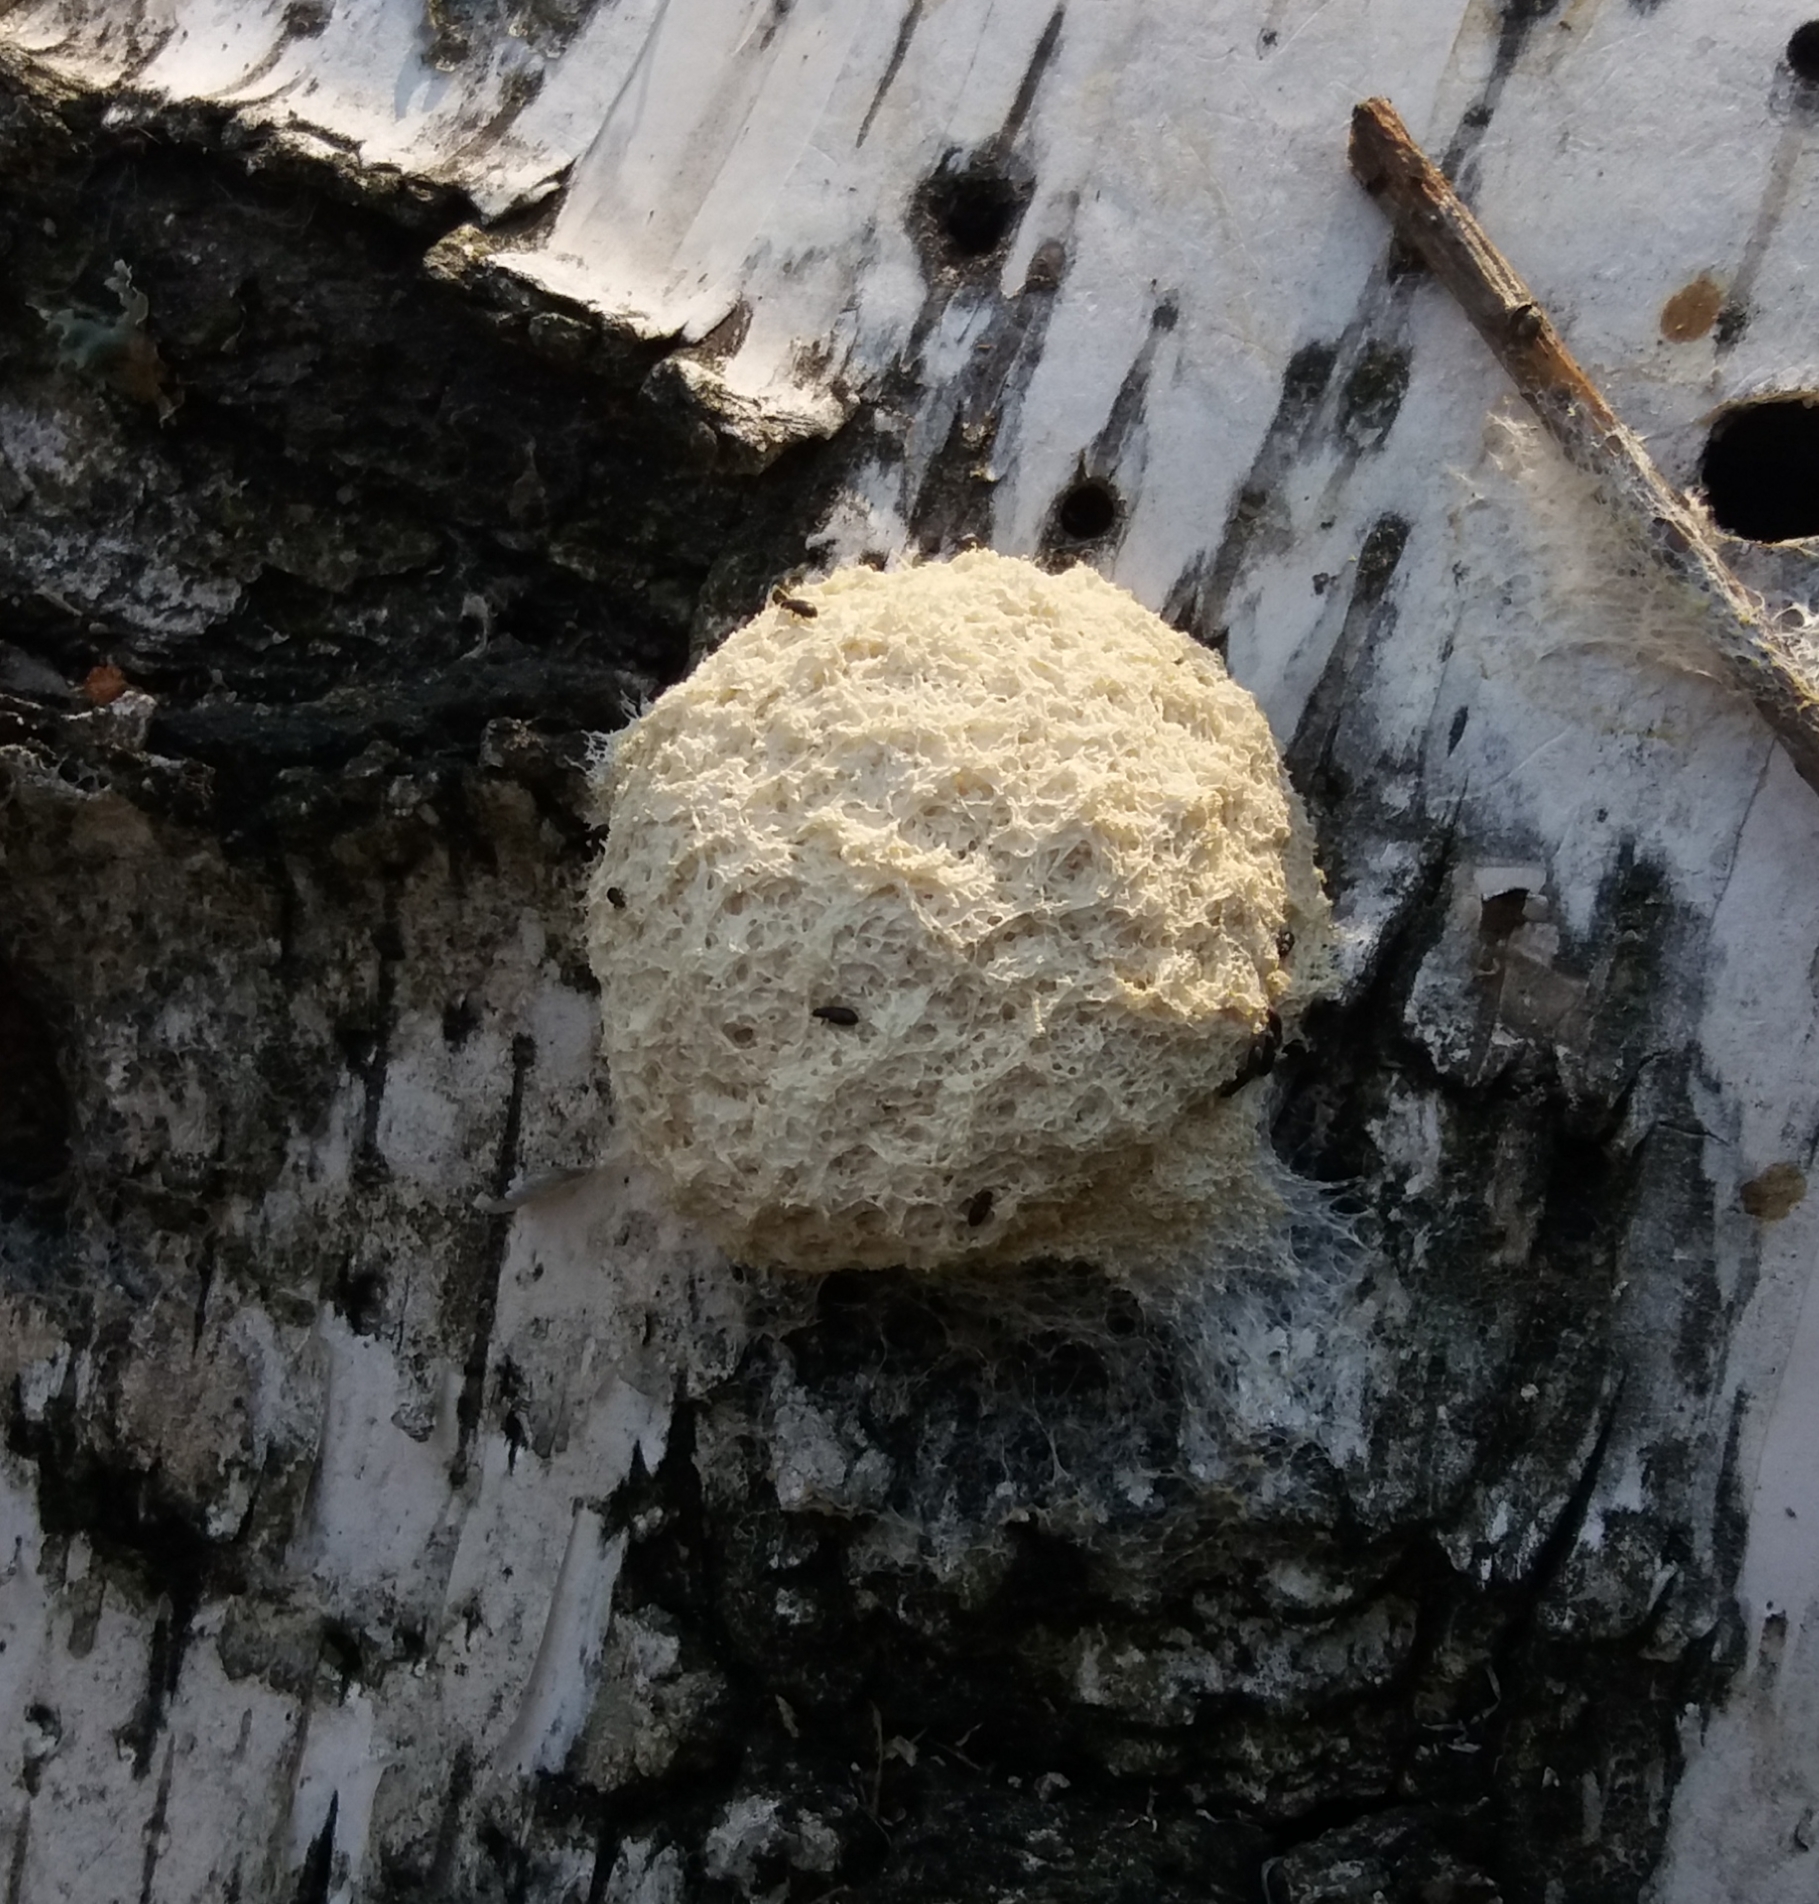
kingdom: Protozoa
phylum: Mycetozoa
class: Myxomycetes
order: Physarales
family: Physaraceae
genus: Fuligo
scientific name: Fuligo septica
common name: Dog vomit slime mold
